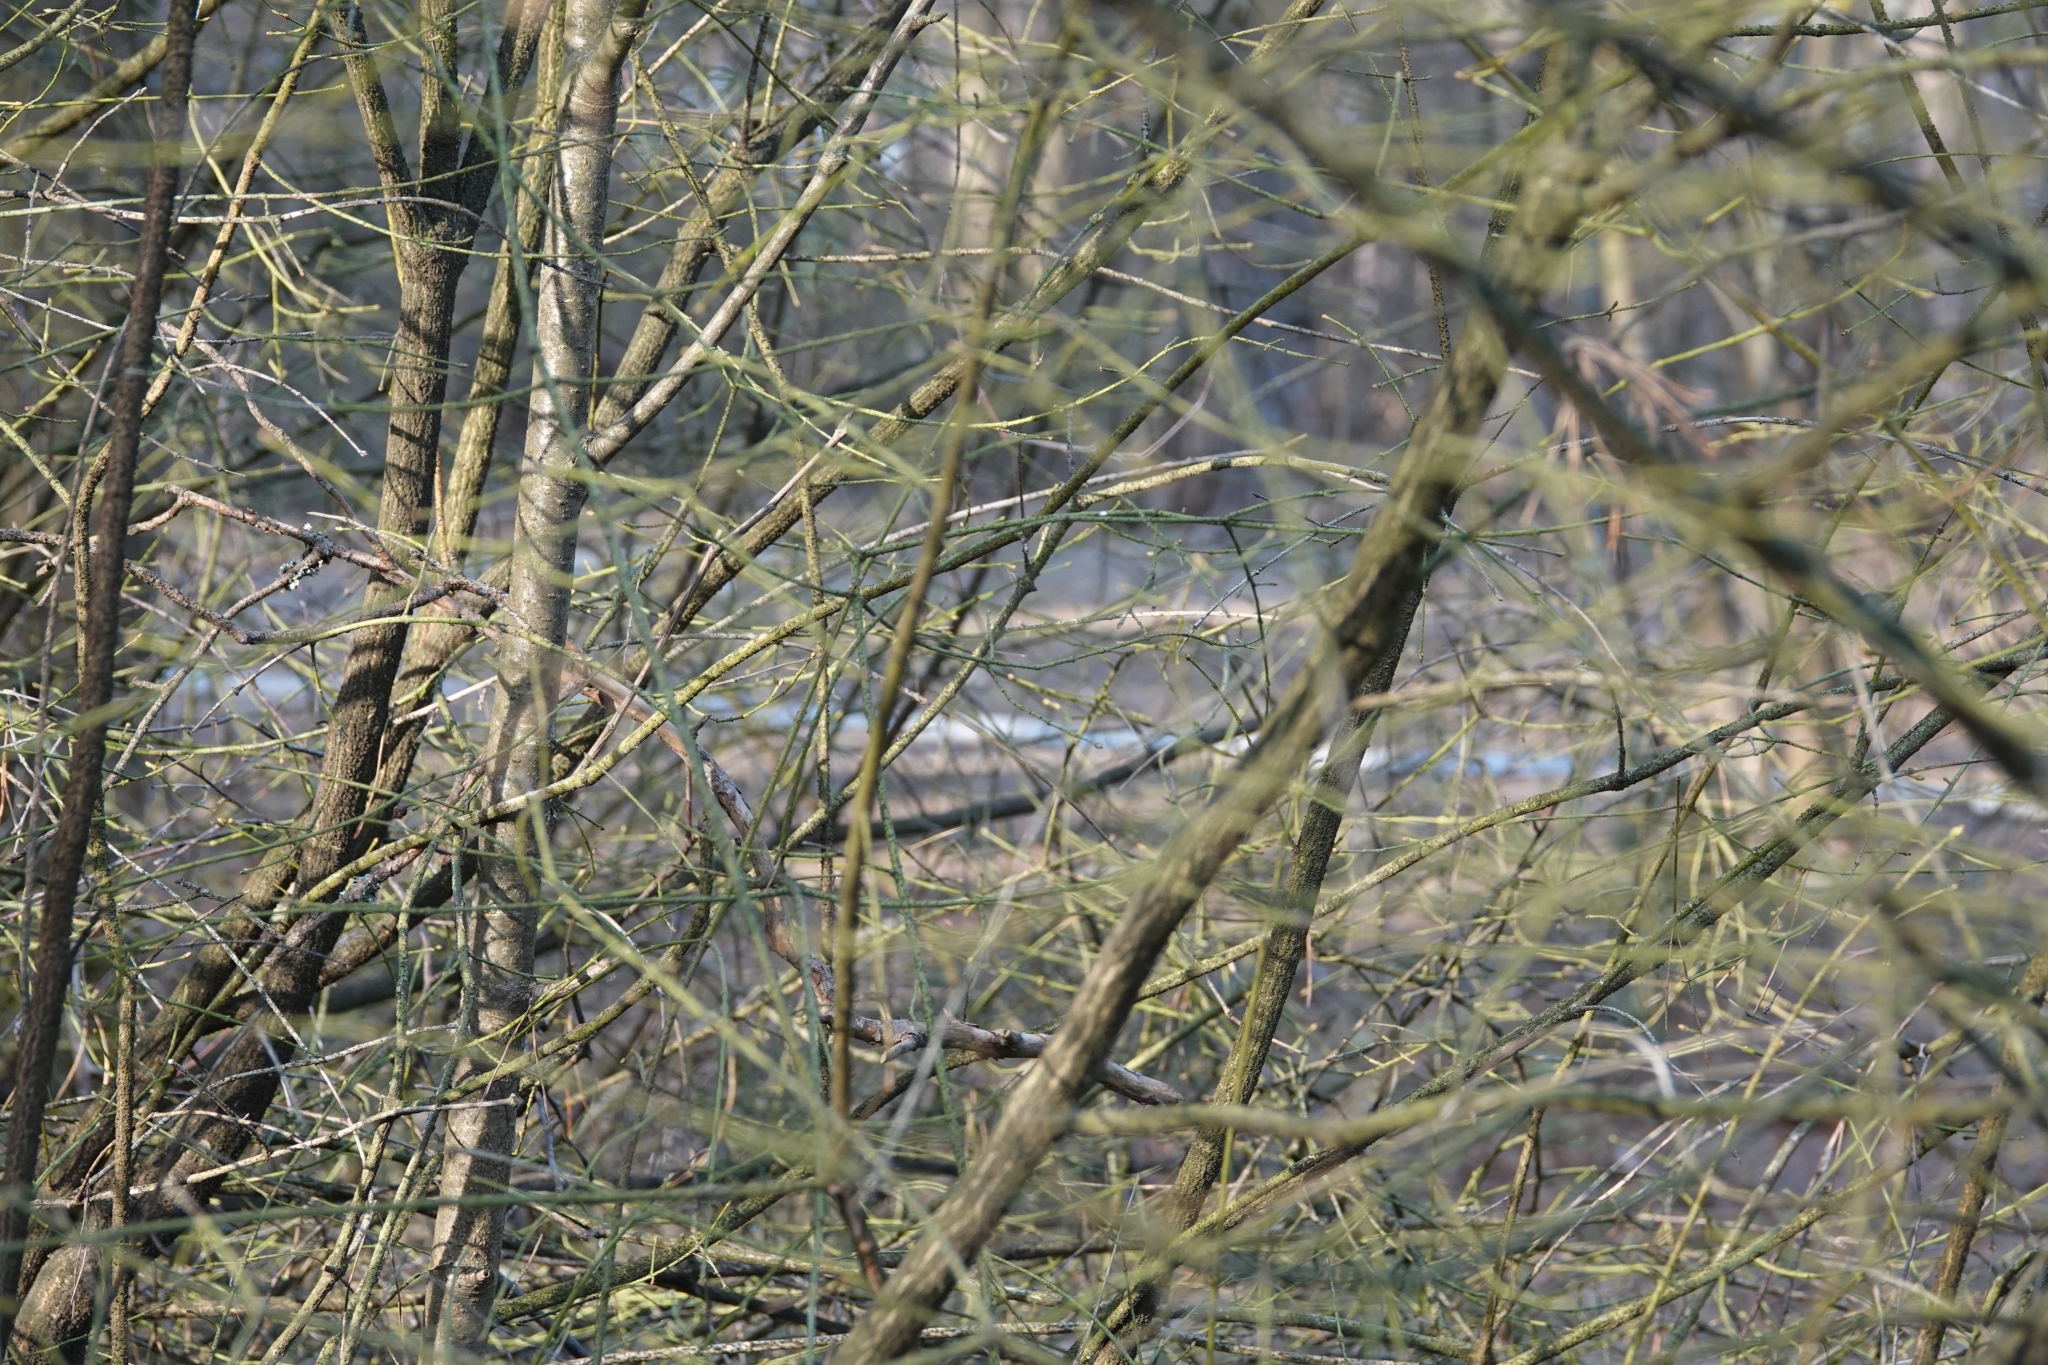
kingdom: Plantae
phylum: Tracheophyta
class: Magnoliopsida
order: Celastrales
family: Celastraceae
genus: Euonymus
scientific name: Euonymus verrucosus
